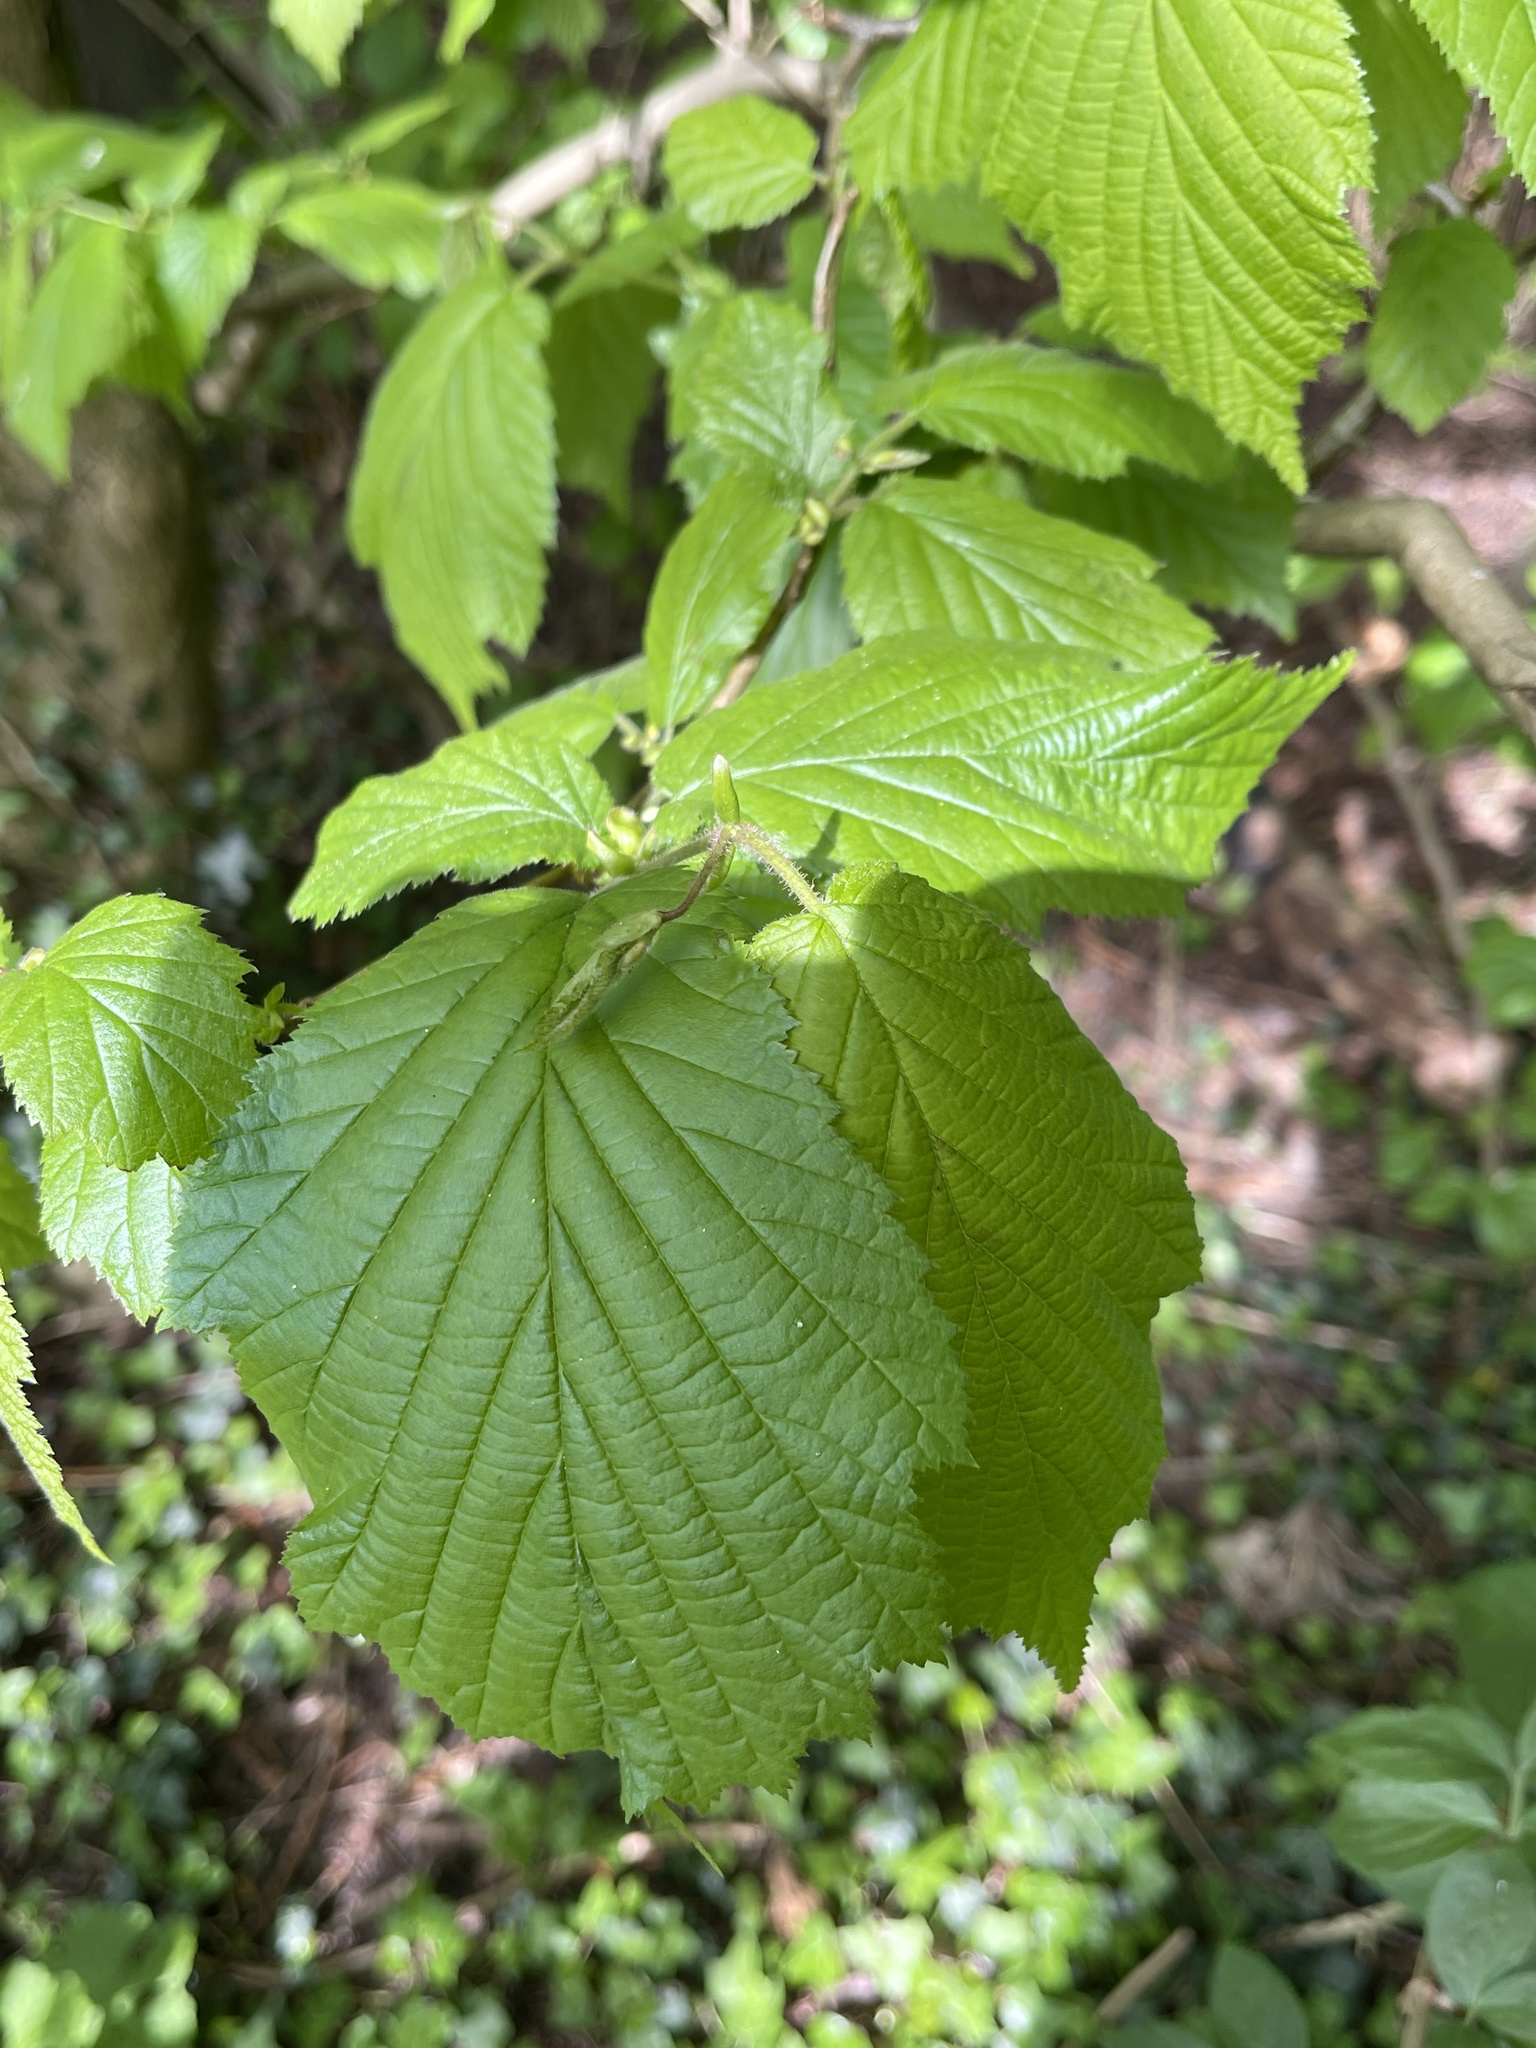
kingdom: Plantae
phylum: Tracheophyta
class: Magnoliopsida
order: Fagales
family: Betulaceae
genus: Corylus
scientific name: Corylus avellana
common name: European hazel
